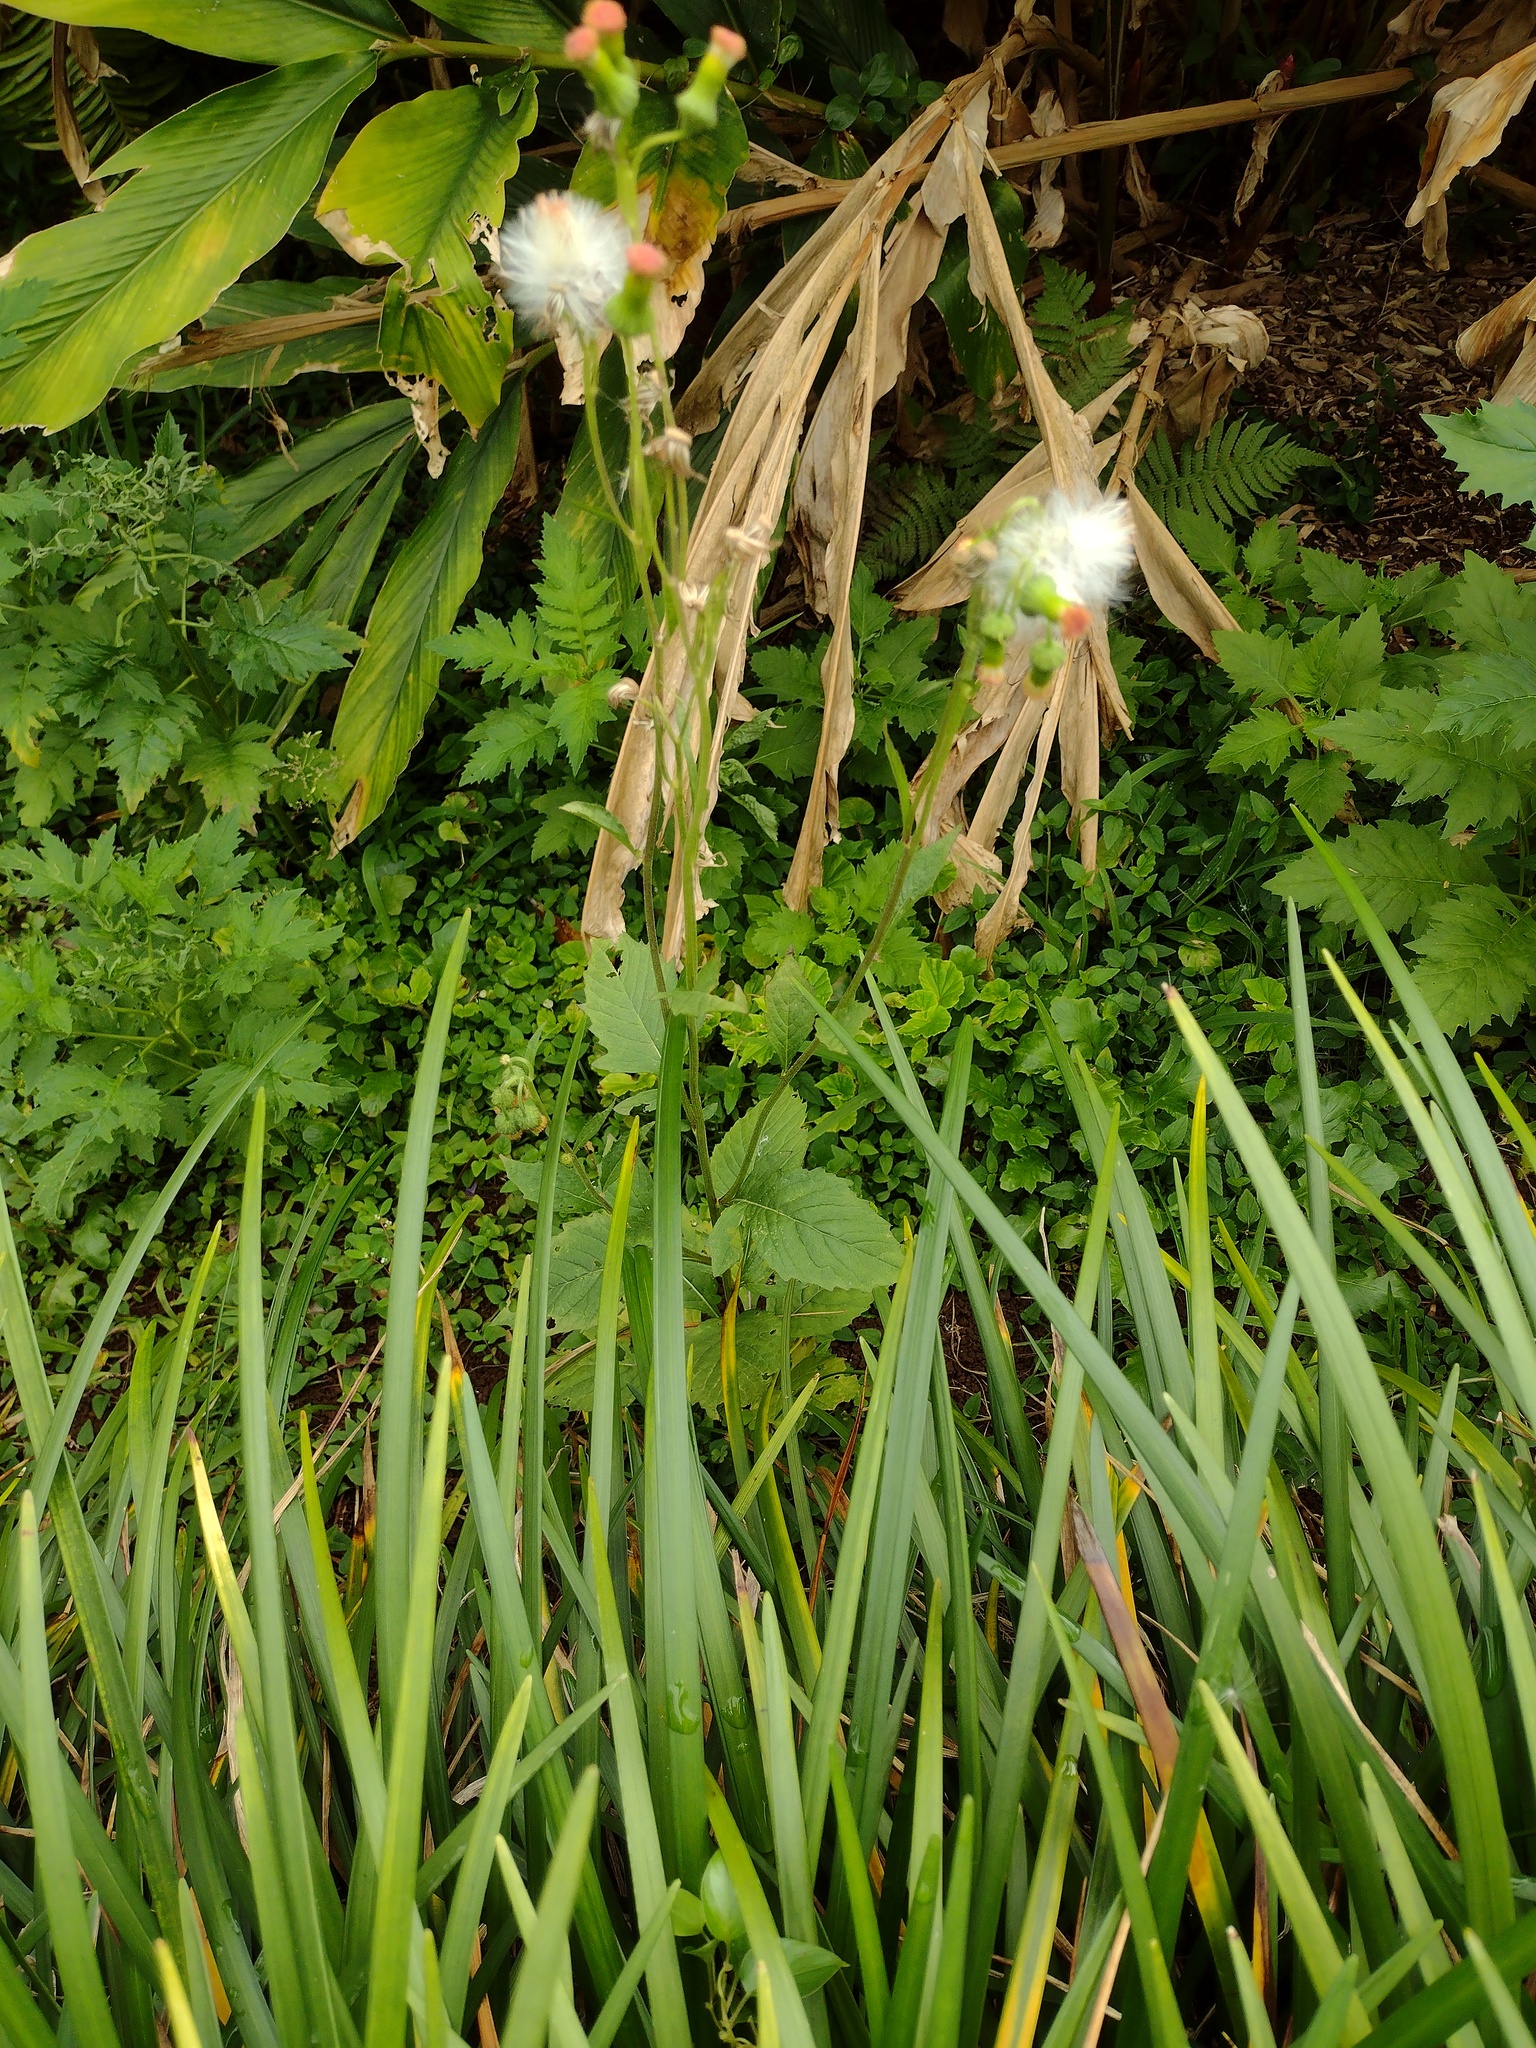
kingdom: Plantae
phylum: Tracheophyta
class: Magnoliopsida
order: Asterales
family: Asteraceae
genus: Crassocephalum
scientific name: Crassocephalum crepidioides
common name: Redflower ragleaf
